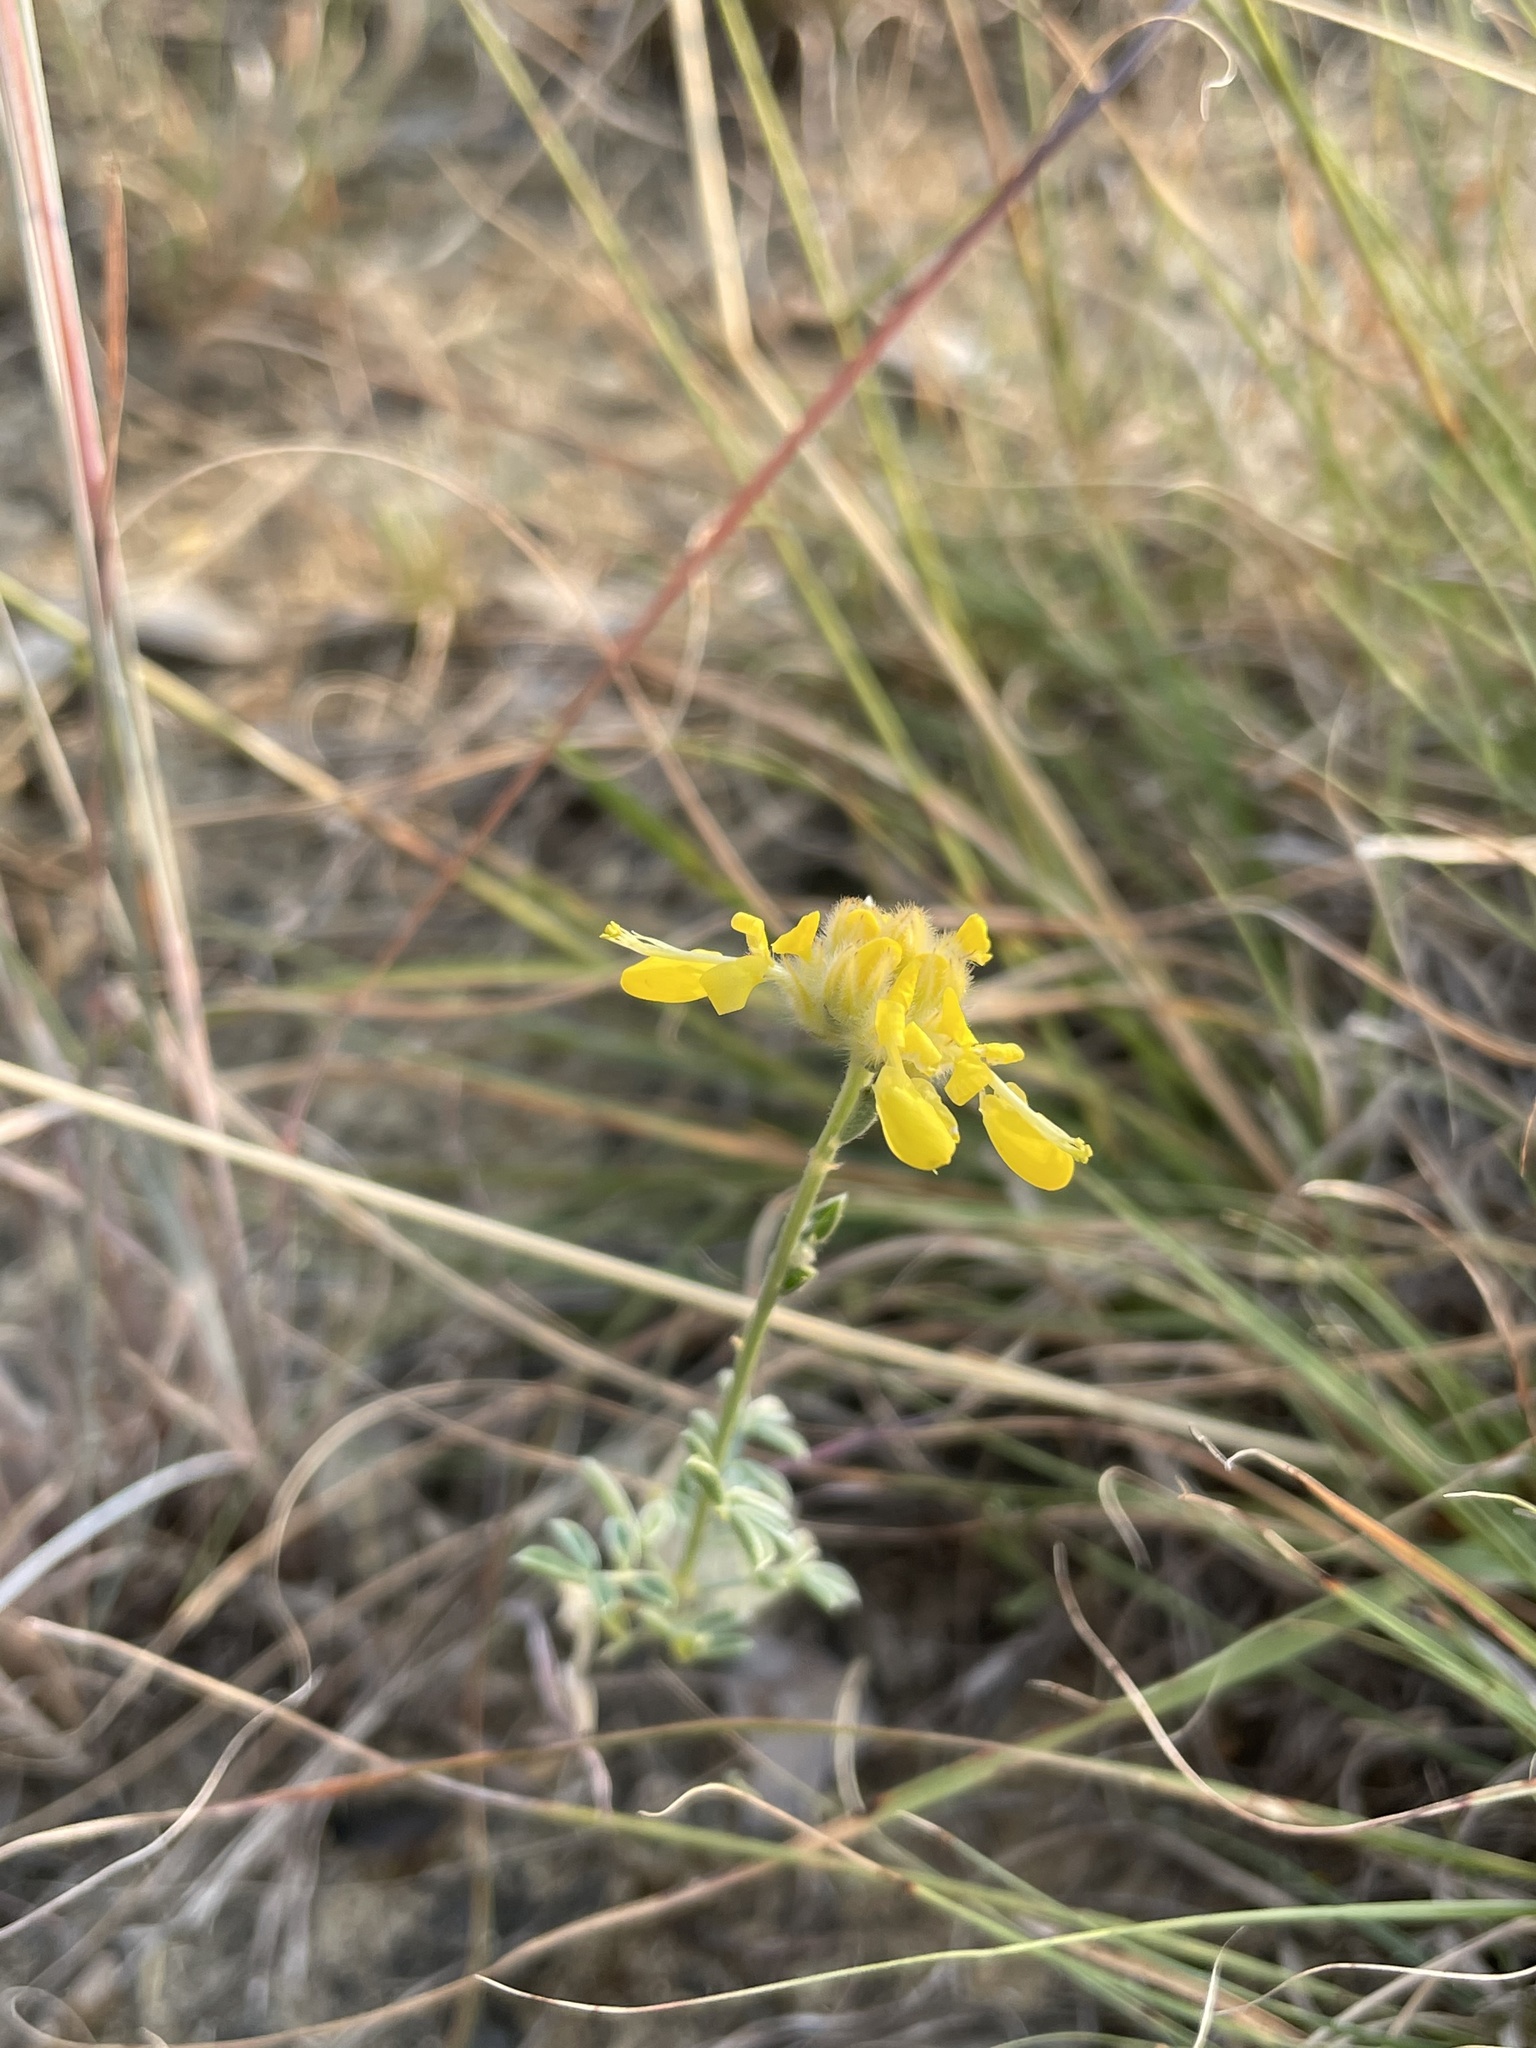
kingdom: Plantae
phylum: Tracheophyta
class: Magnoliopsida
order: Fabales
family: Fabaceae
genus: Dalea
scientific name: Dalea aurea
